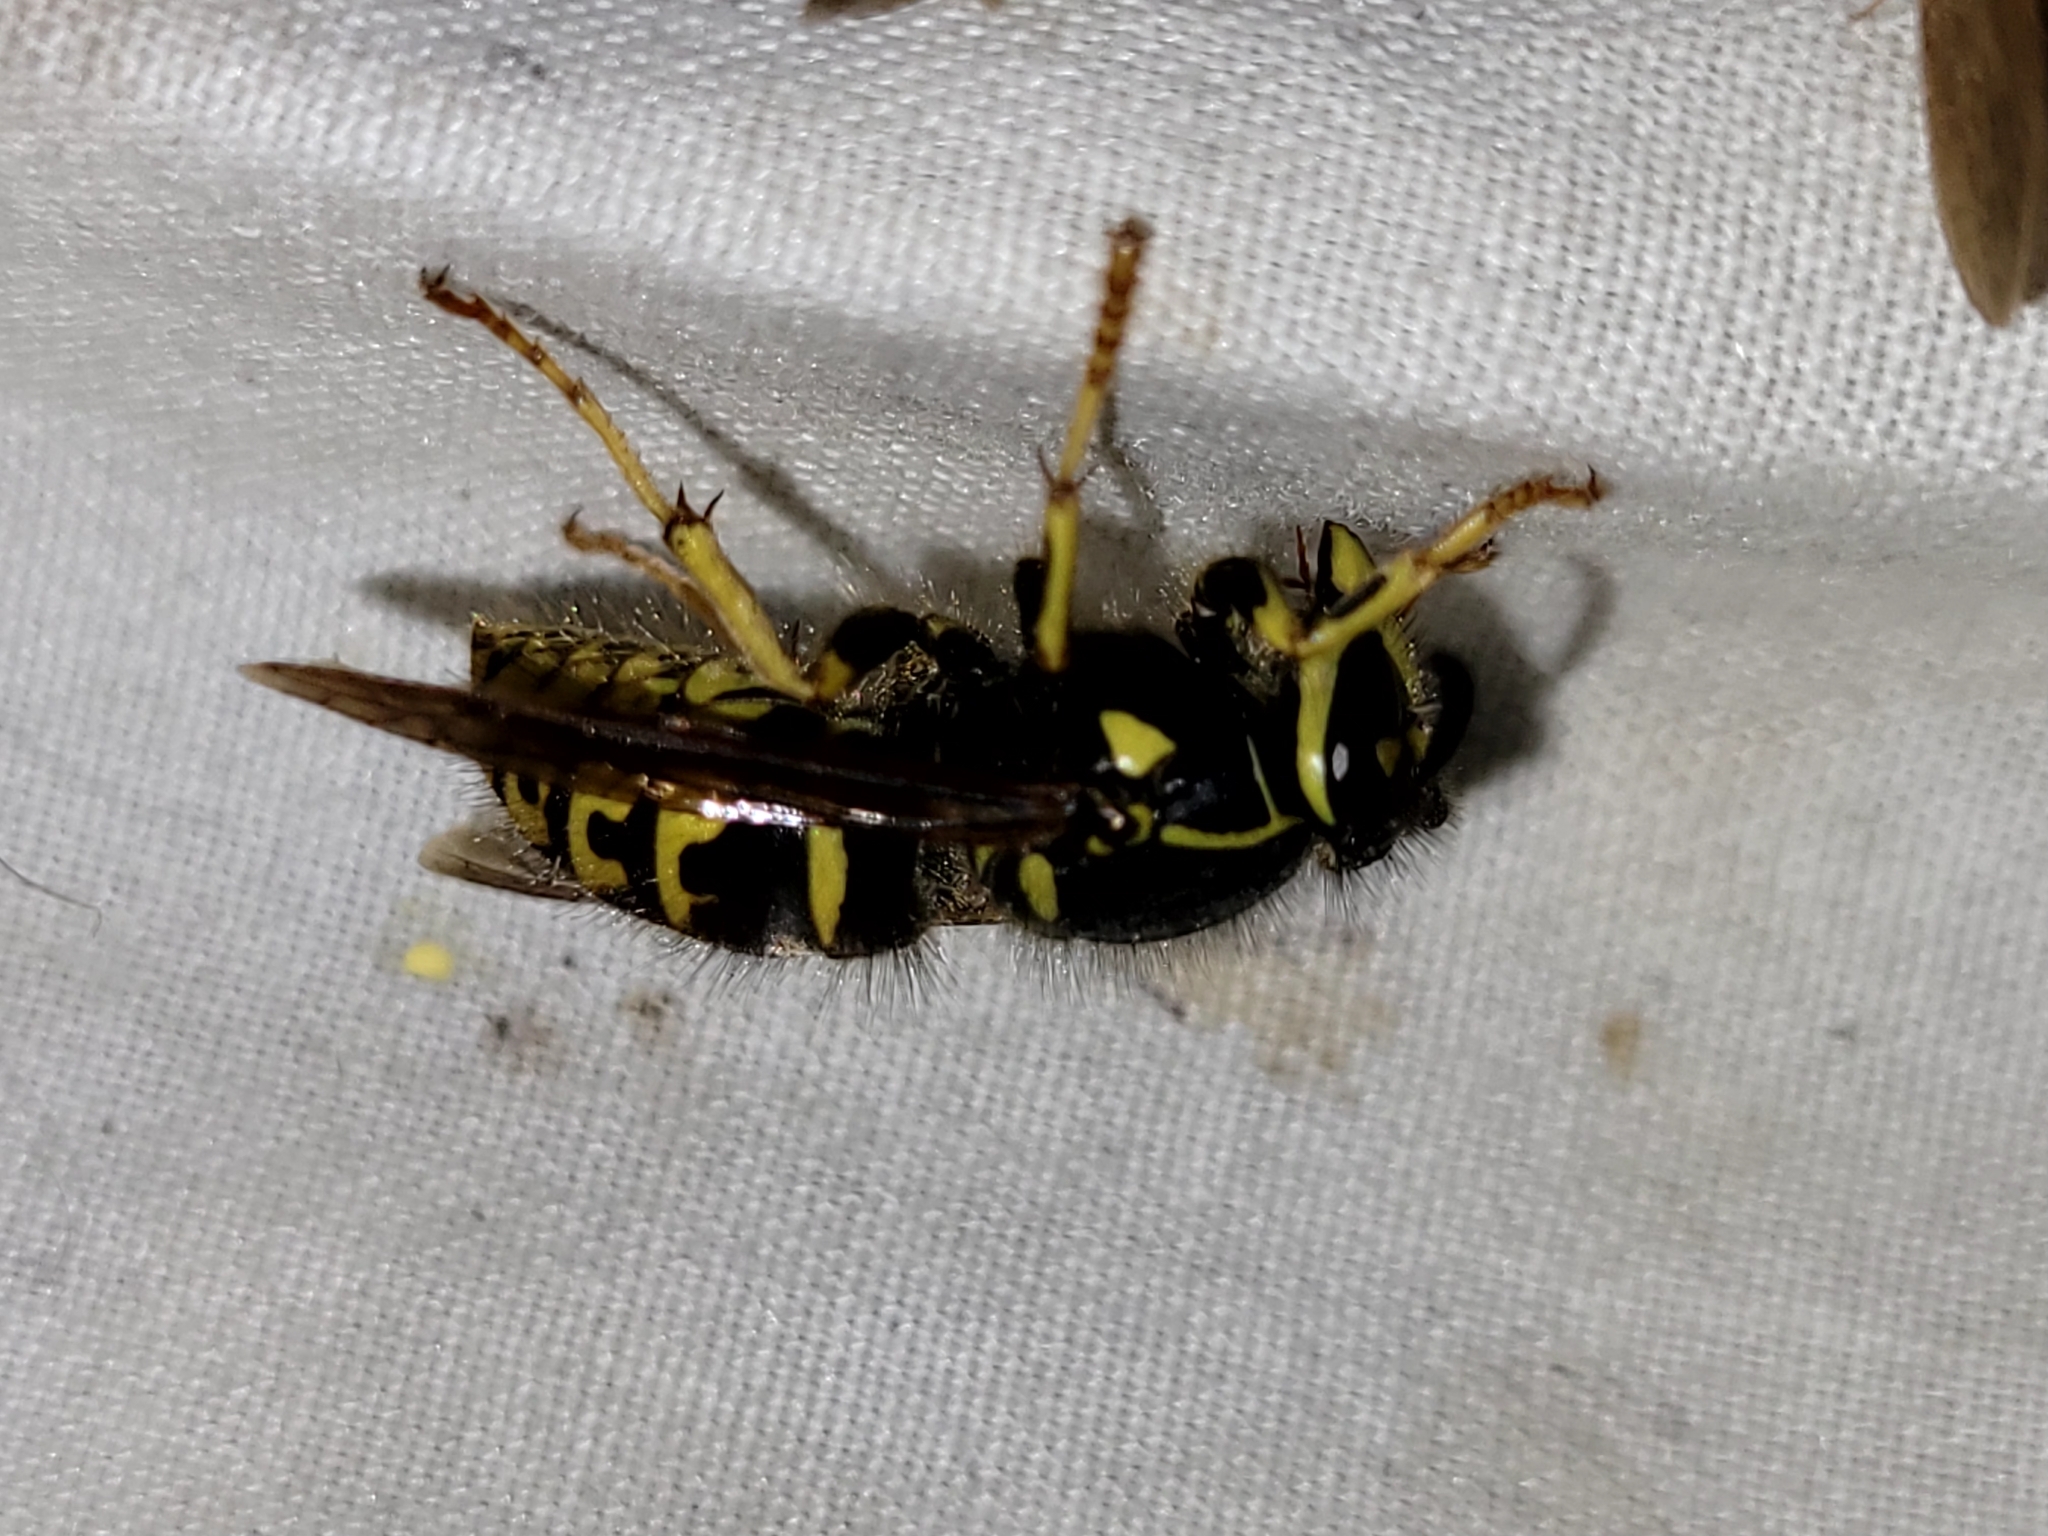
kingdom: Animalia
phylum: Arthropoda
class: Insecta
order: Hymenoptera
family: Vespidae
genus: Dolichovespula
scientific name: Dolichovespula arenaria
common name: Aerial yellowjacket
